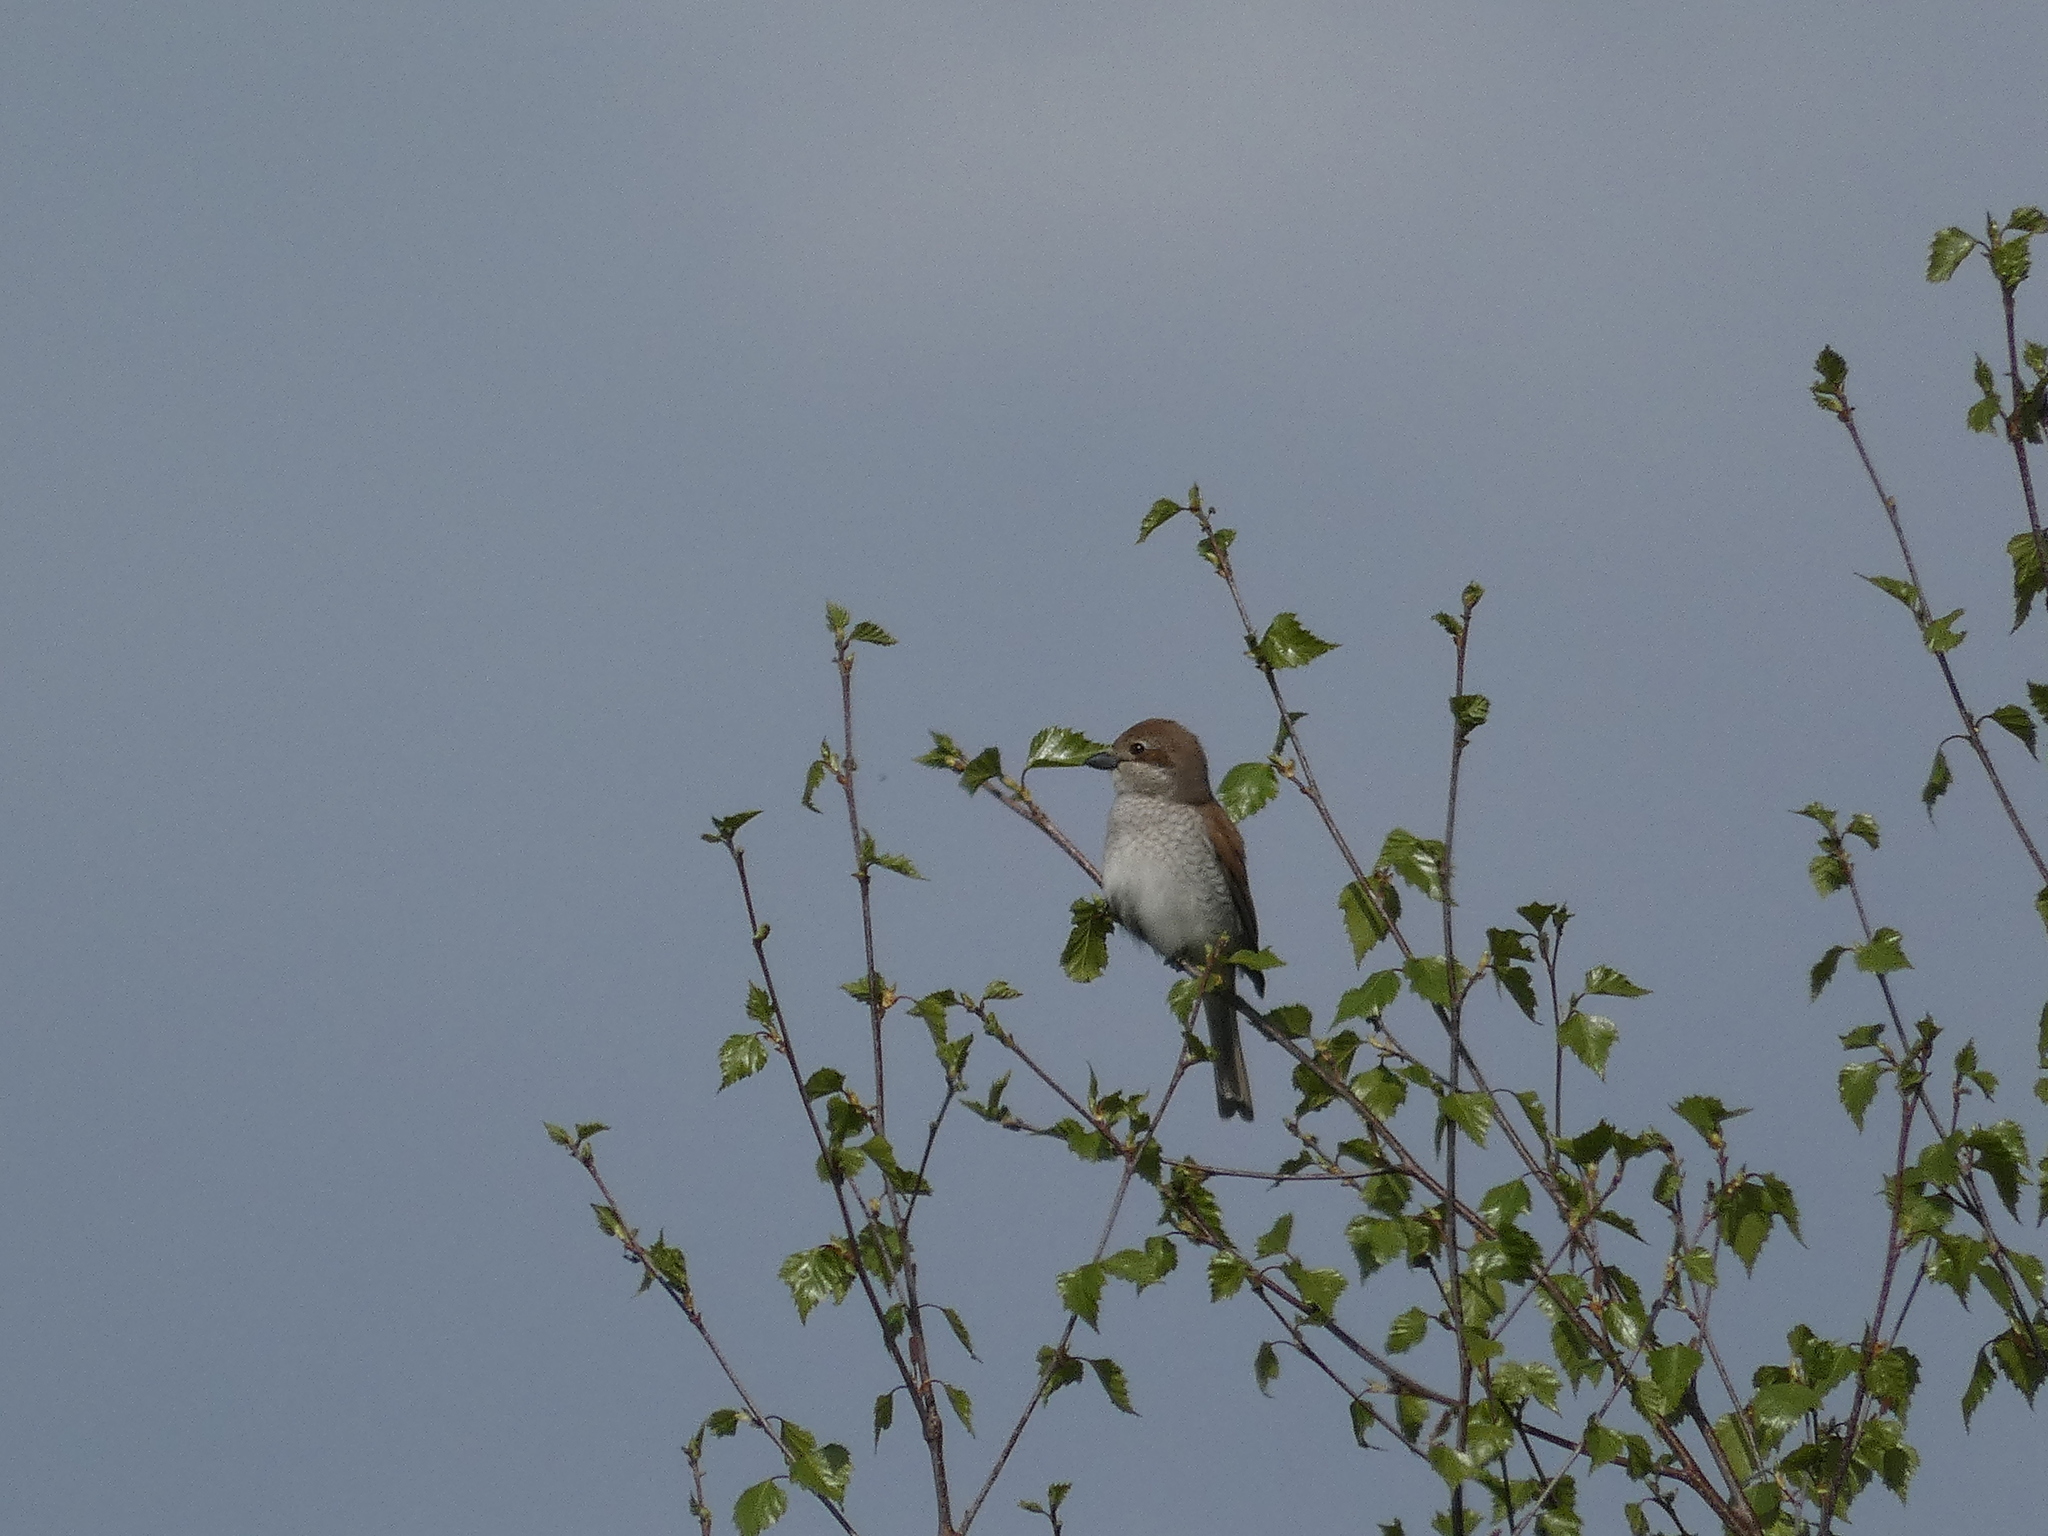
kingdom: Animalia
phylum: Chordata
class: Aves
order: Passeriformes
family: Laniidae
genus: Lanius
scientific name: Lanius collurio
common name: Red-backed shrike
